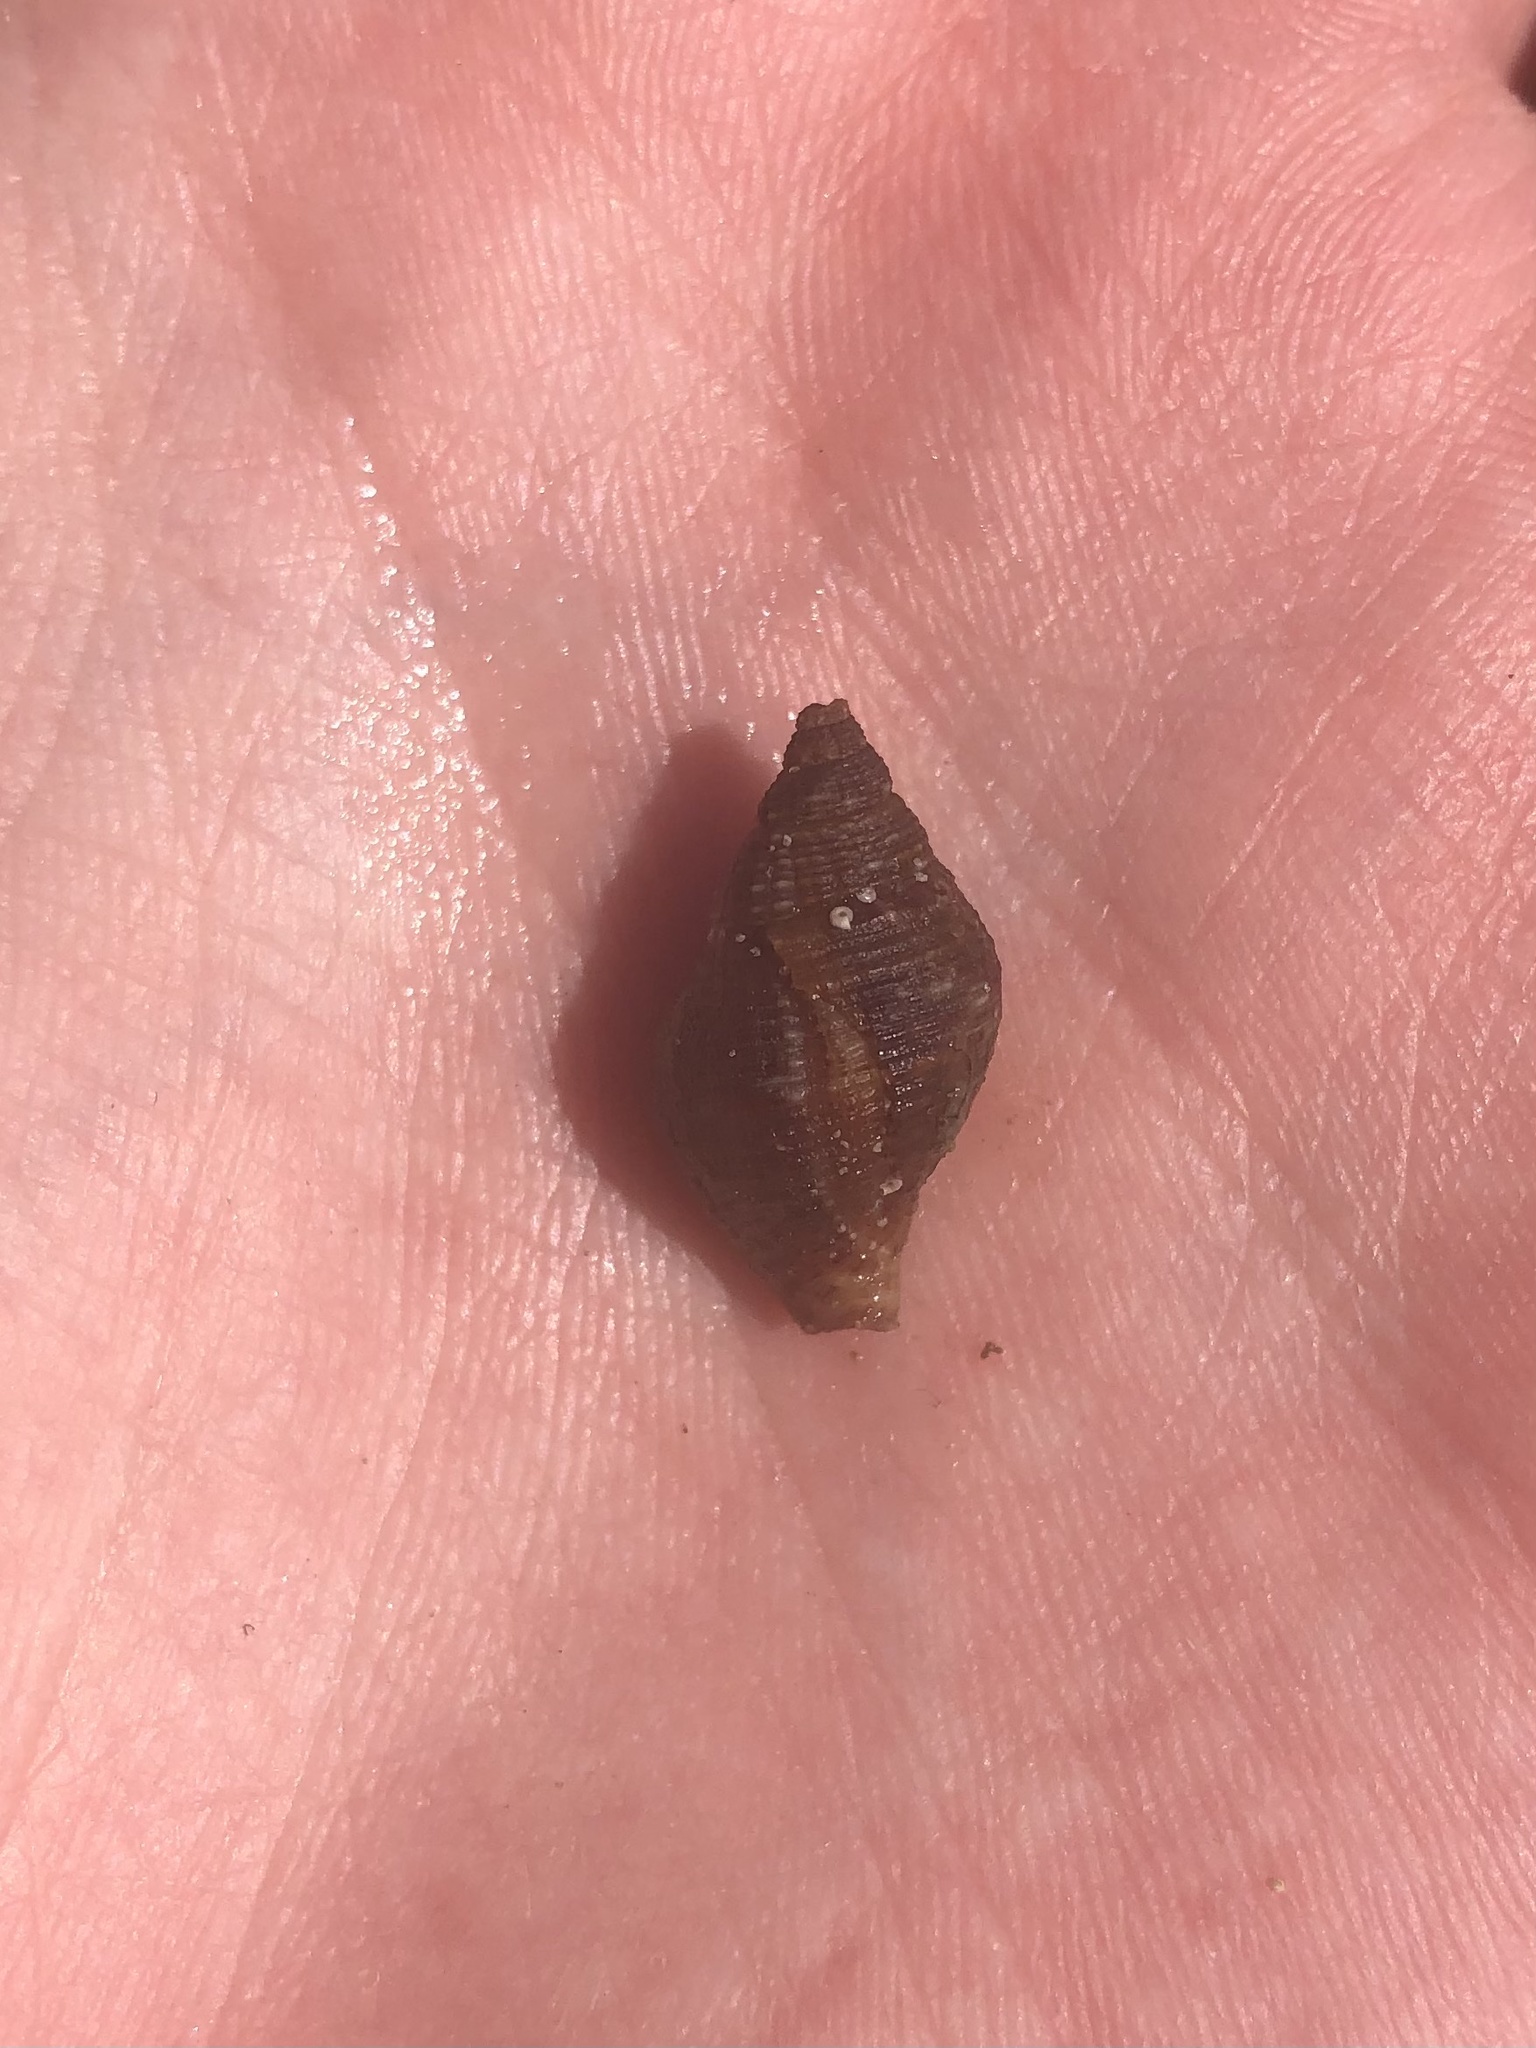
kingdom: Animalia
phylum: Mollusca
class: Gastropoda
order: Neogastropoda
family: Pisaniidae
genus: Gemophos
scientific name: Gemophos tinctus
